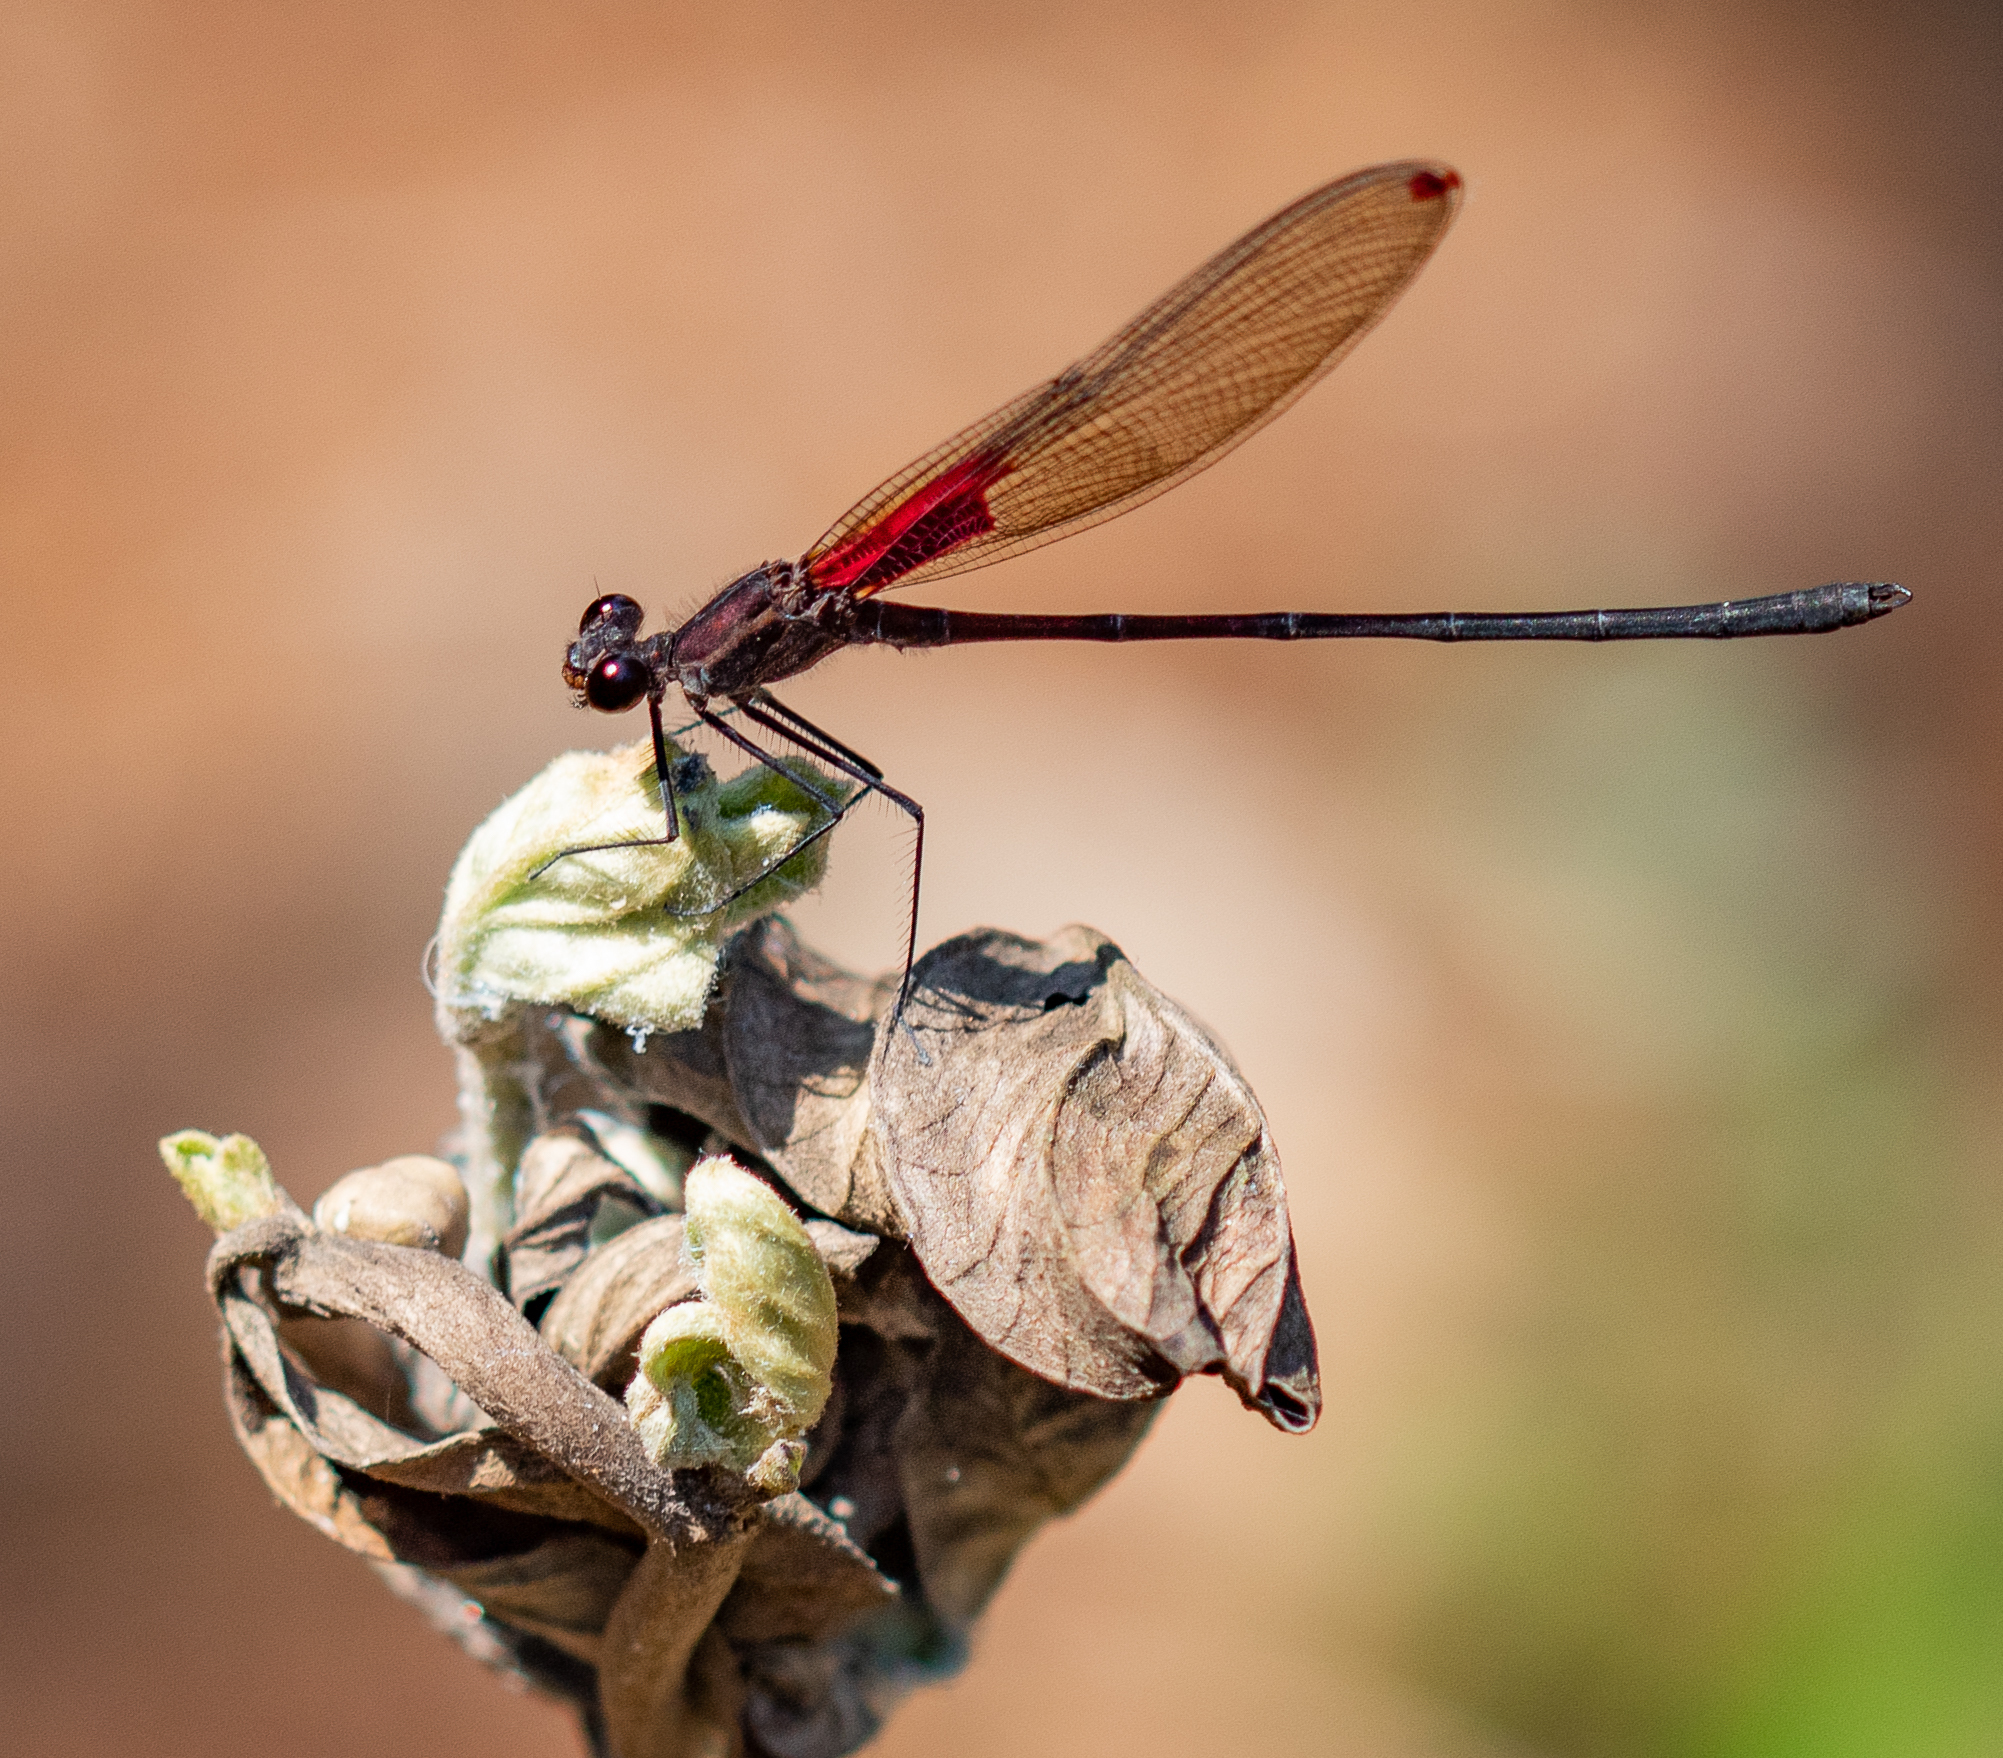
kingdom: Animalia
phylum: Arthropoda
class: Insecta
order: Odonata
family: Calopterygidae
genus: Hetaerina
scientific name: Hetaerina longipes
